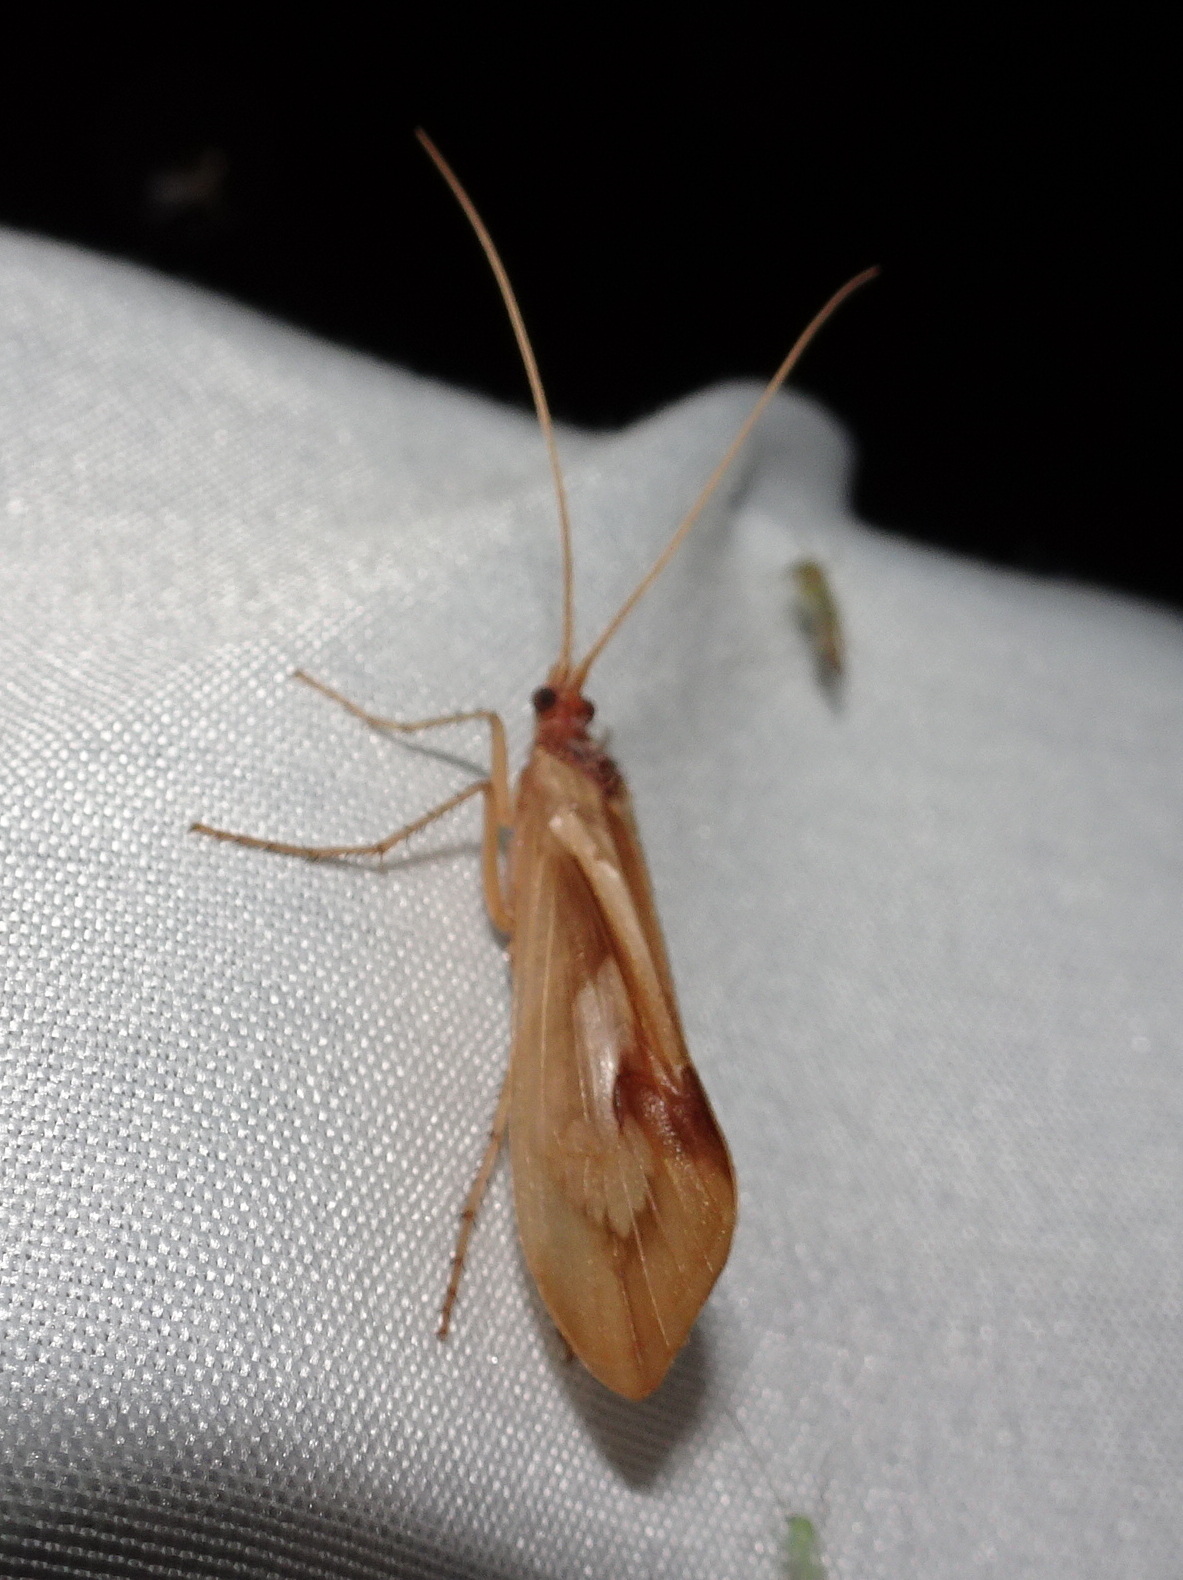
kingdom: Animalia
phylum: Arthropoda
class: Insecta
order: Trichoptera
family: Limnephilidae
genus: Platycentropus
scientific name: Platycentropus radiatus
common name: Chocolate-and-cream sedge
